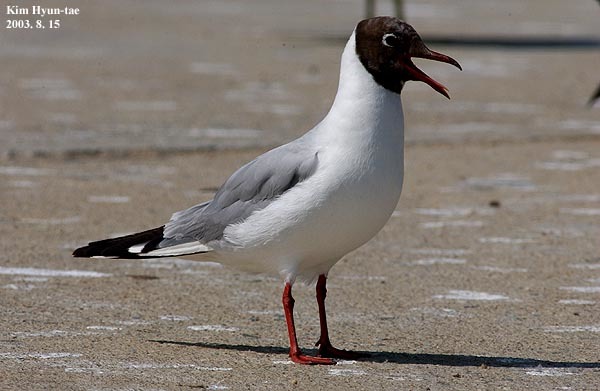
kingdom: Animalia
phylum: Chordata
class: Aves
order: Charadriiformes
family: Laridae
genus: Chroicocephalus
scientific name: Chroicocephalus ridibundus
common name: Black-headed gull
